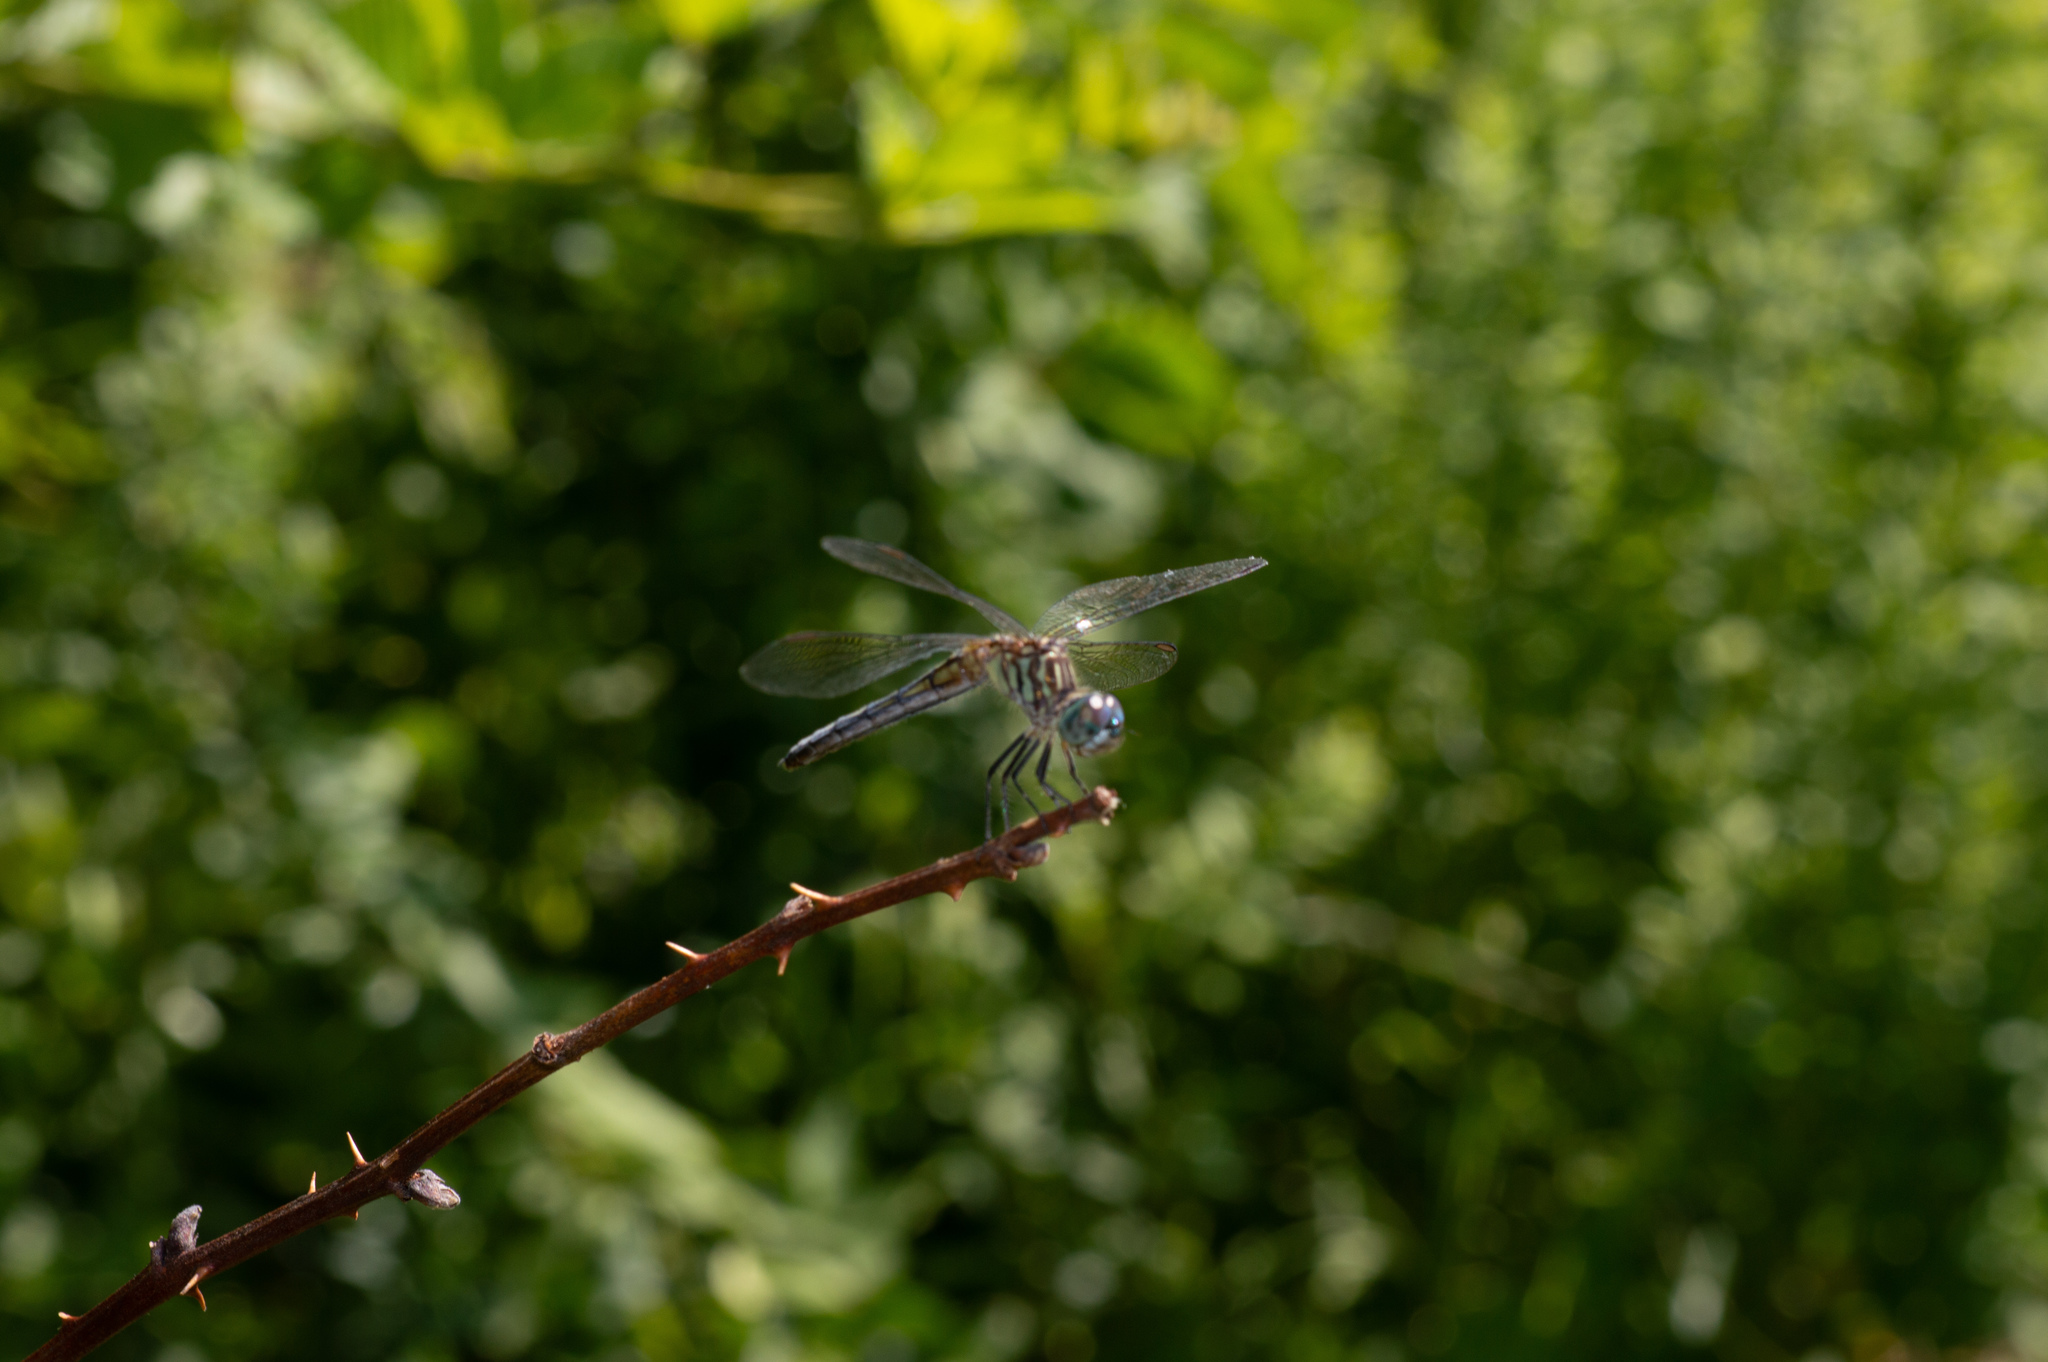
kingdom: Animalia
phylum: Arthropoda
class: Insecta
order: Odonata
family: Libellulidae
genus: Pachydiplax
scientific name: Pachydiplax longipennis
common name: Blue dasher
